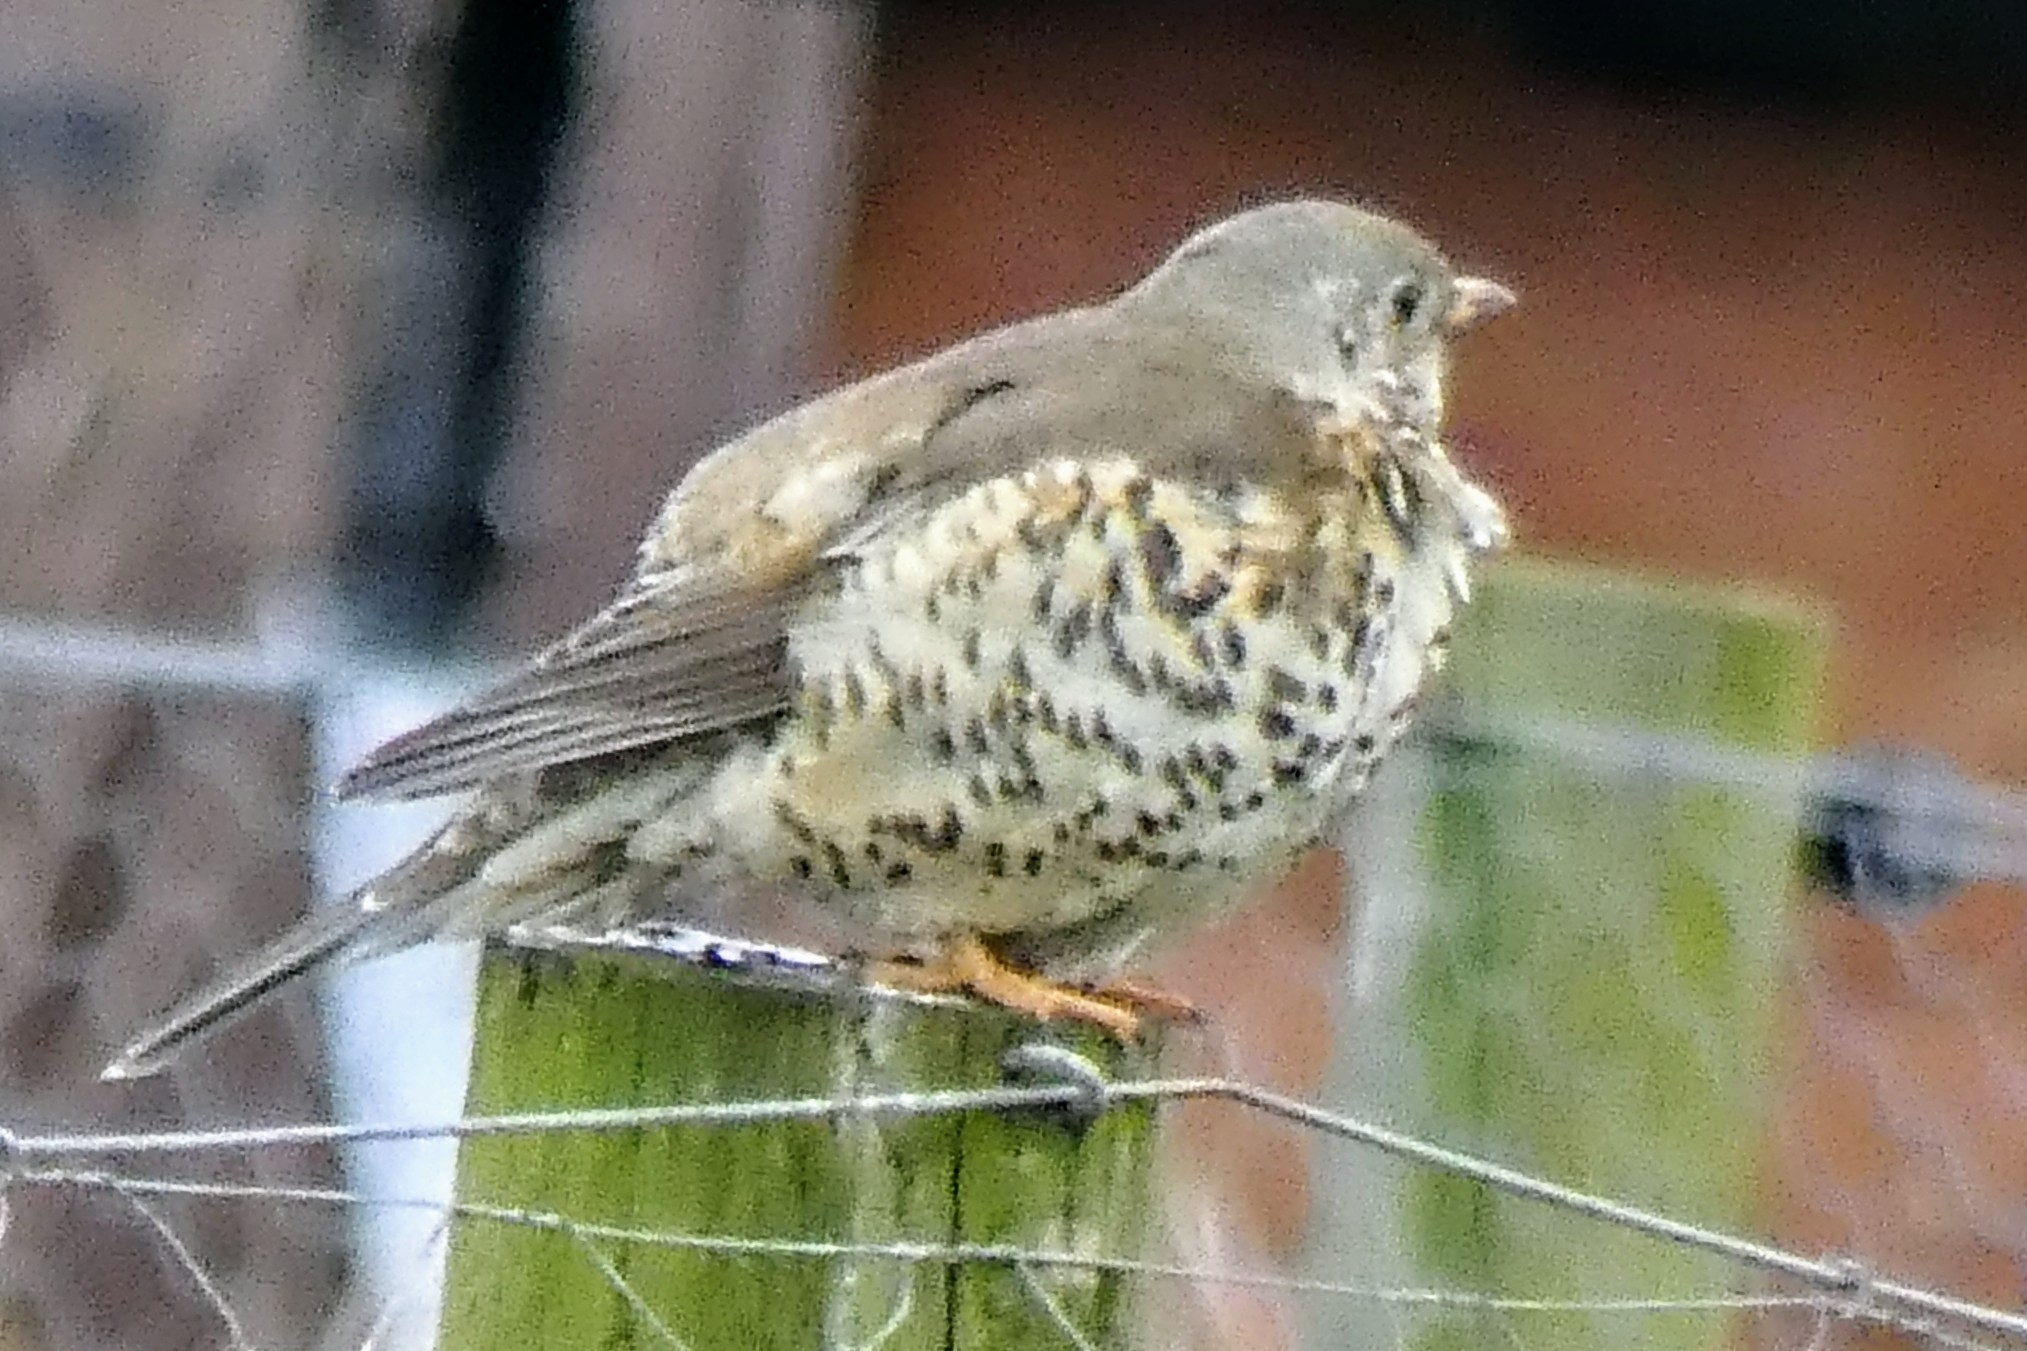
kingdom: Animalia
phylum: Chordata
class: Aves
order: Passeriformes
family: Turdidae
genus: Turdus
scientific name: Turdus viscivorus
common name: Mistle thrush
